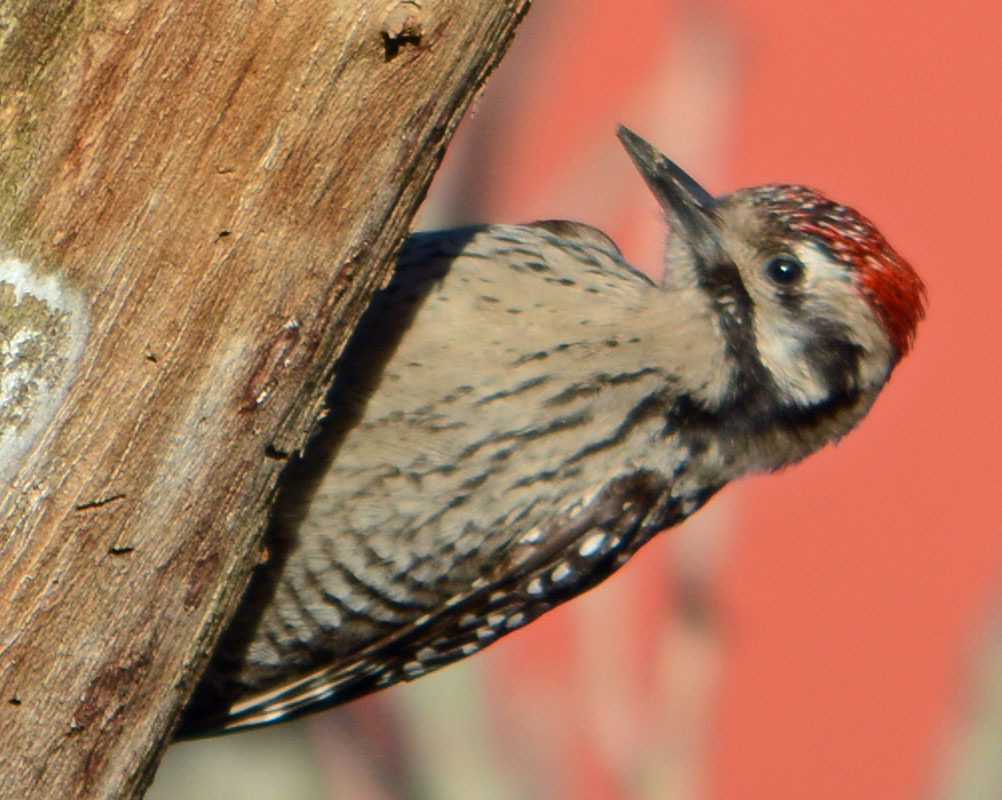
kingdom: Animalia
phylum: Chordata
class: Aves
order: Piciformes
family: Picidae
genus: Dryobates
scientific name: Dryobates scalaris
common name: Ladder-backed woodpecker
